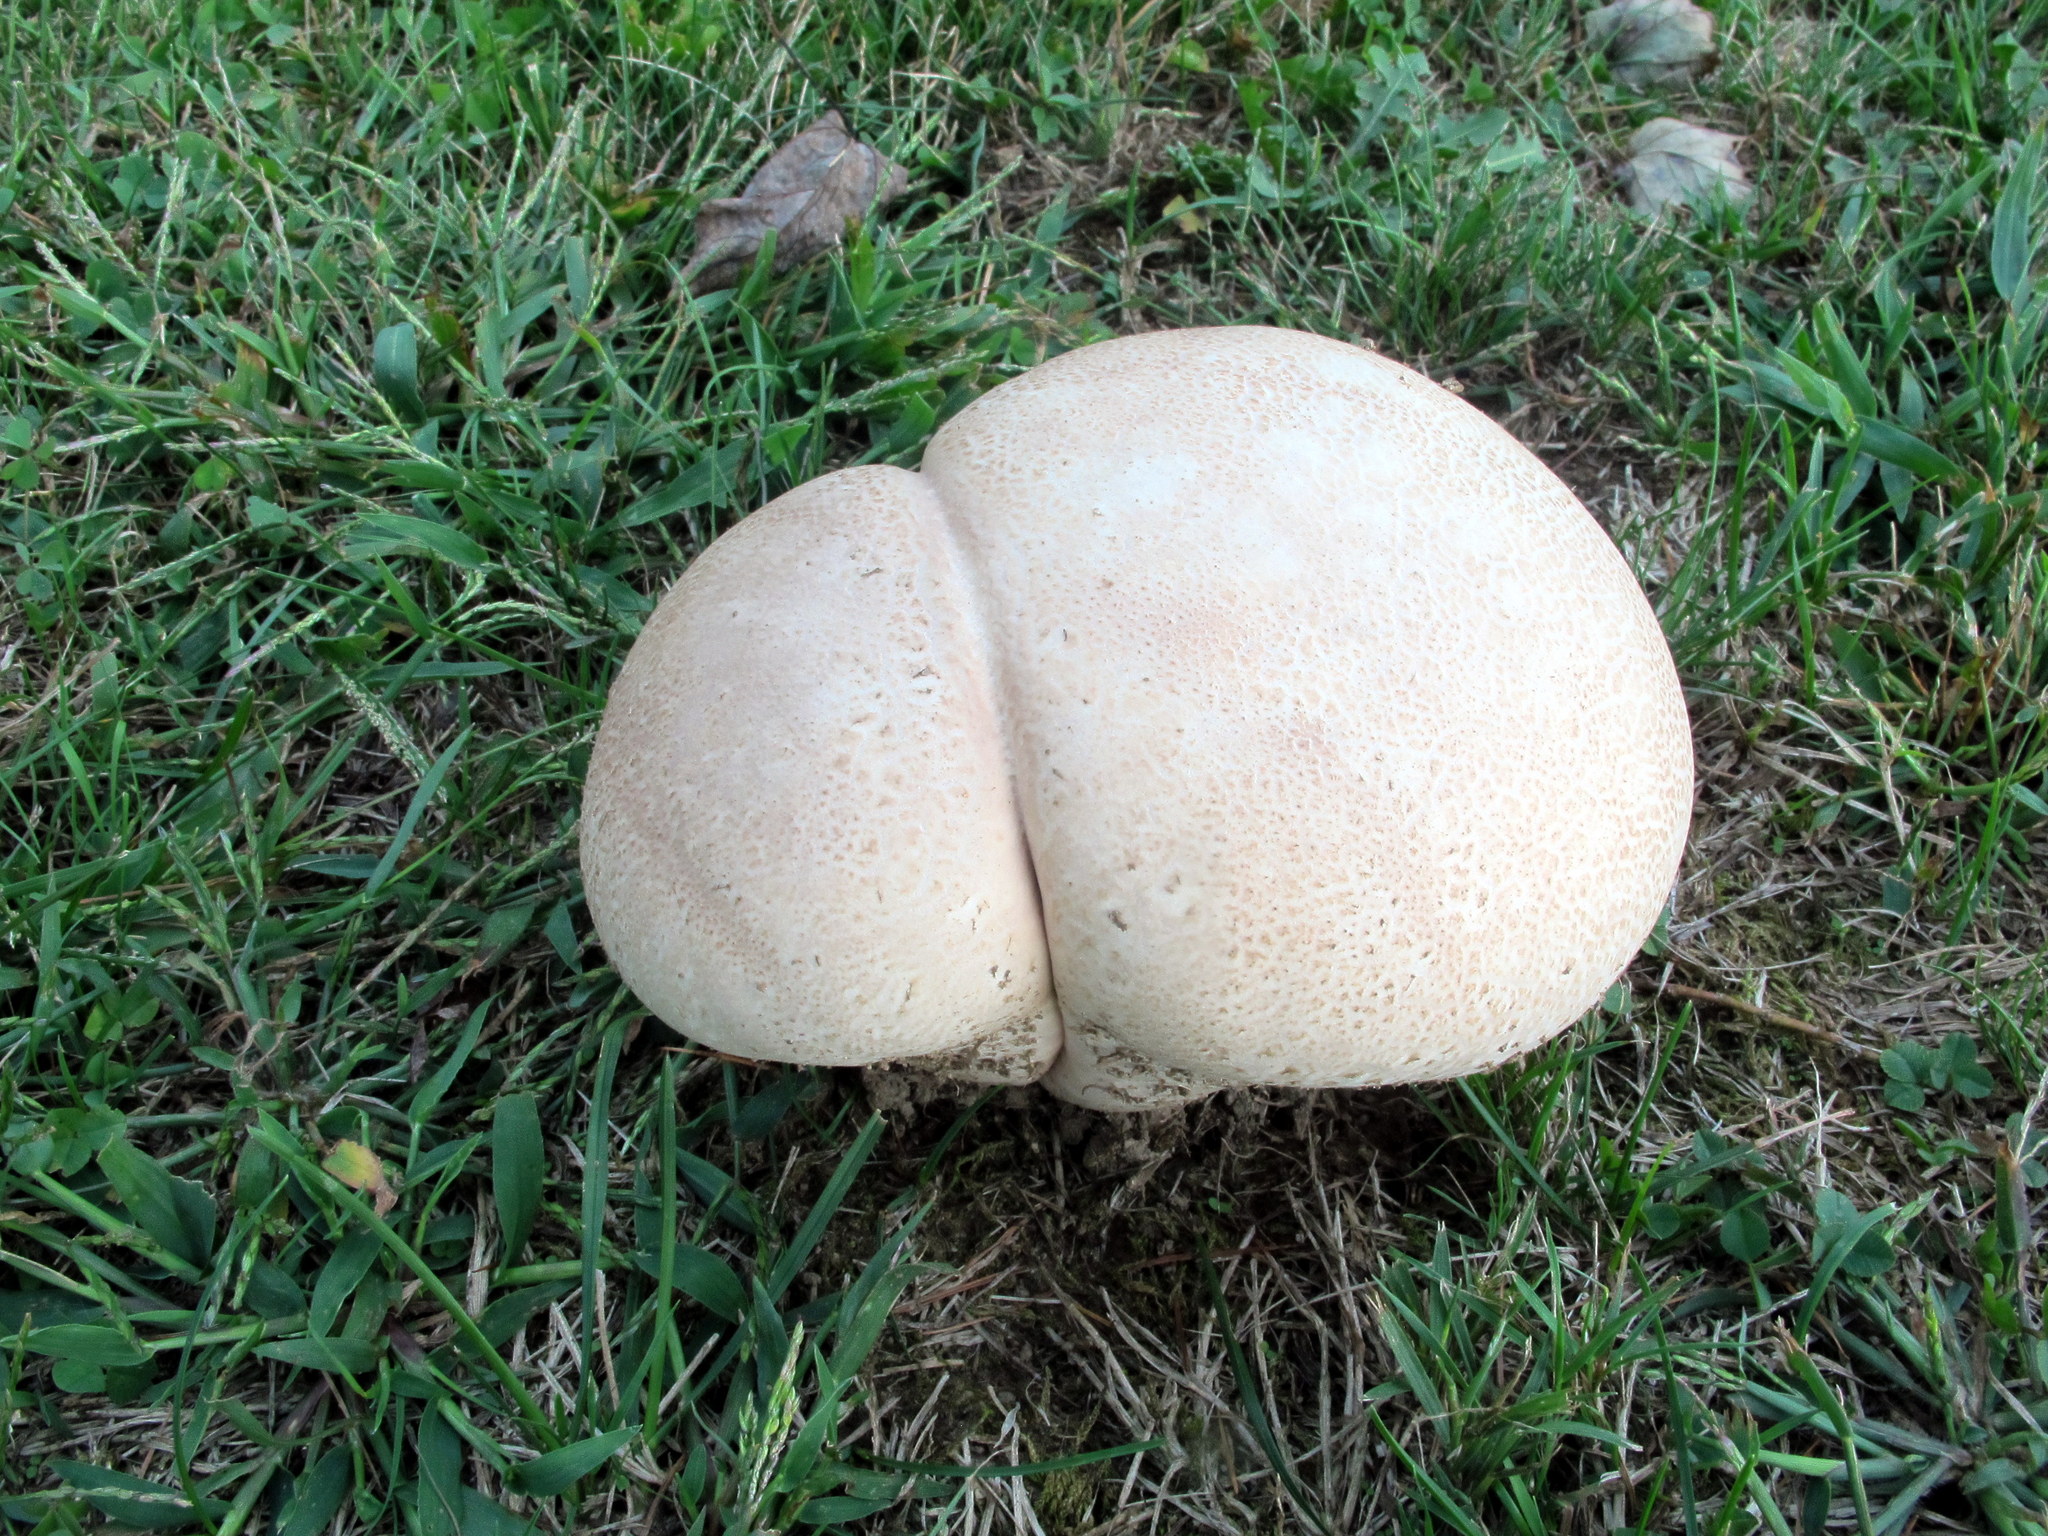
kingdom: Fungi
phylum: Basidiomycota
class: Agaricomycetes
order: Agaricales
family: Lycoperdaceae
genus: Calvatia
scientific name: Calvatia cyathiformis
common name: Purple-spored puffball
